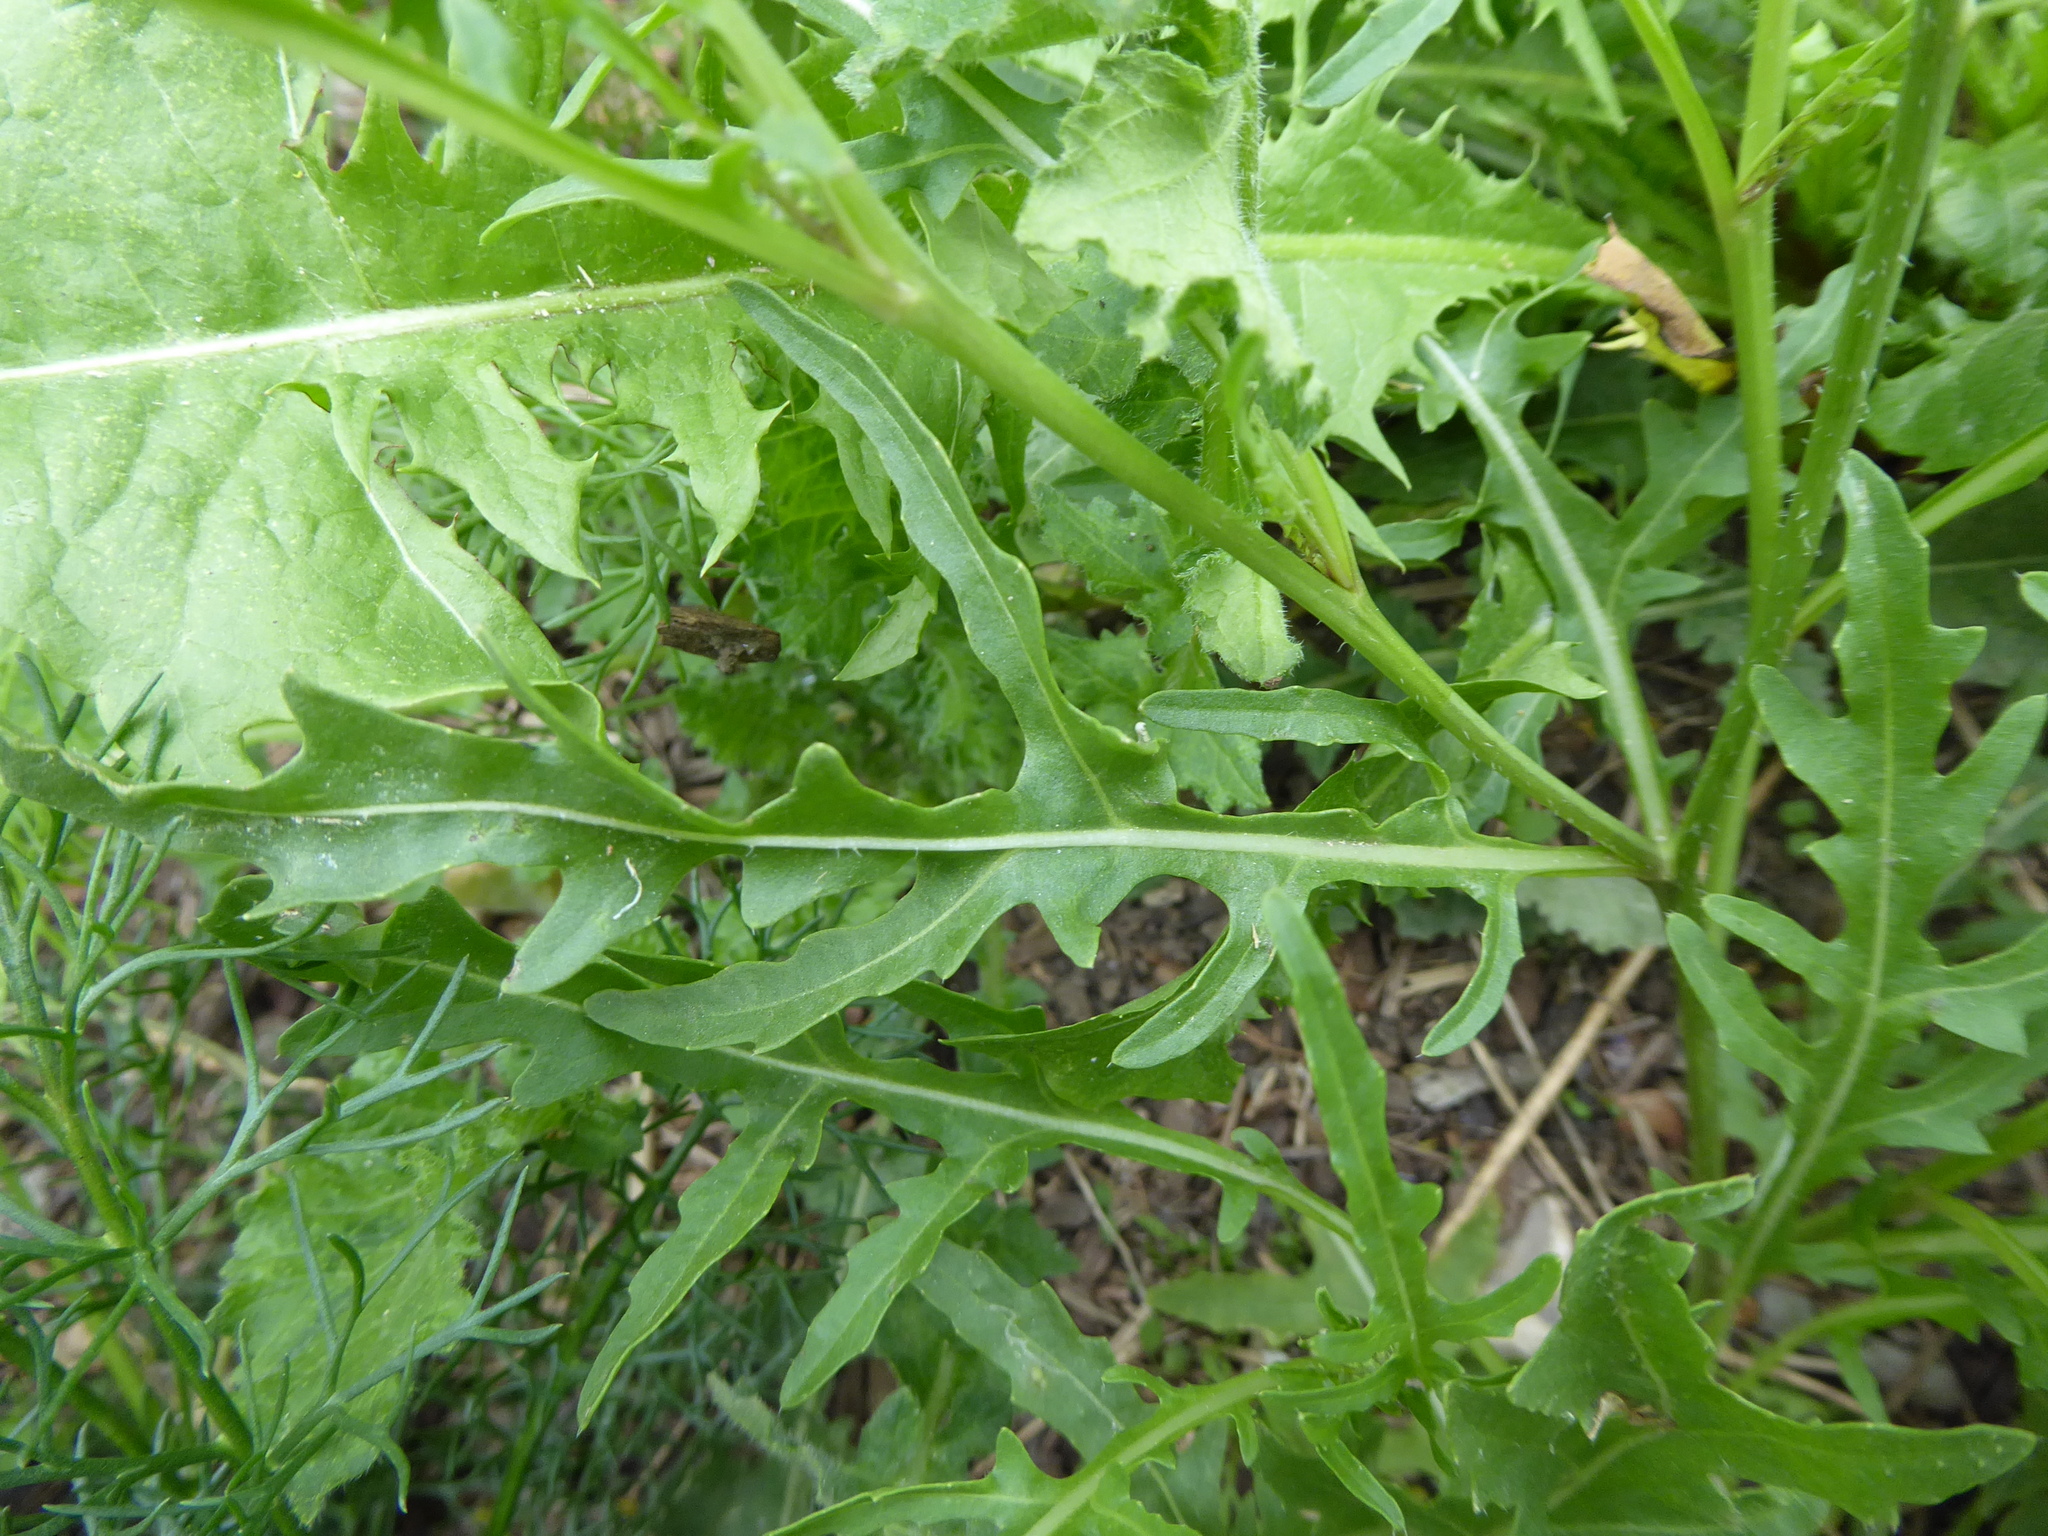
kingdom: Plantae
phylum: Tracheophyta
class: Magnoliopsida
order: Brassicales
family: Brassicaceae
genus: Diplotaxis
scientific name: Diplotaxis tenuifolia
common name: Perennial wall-rocket
